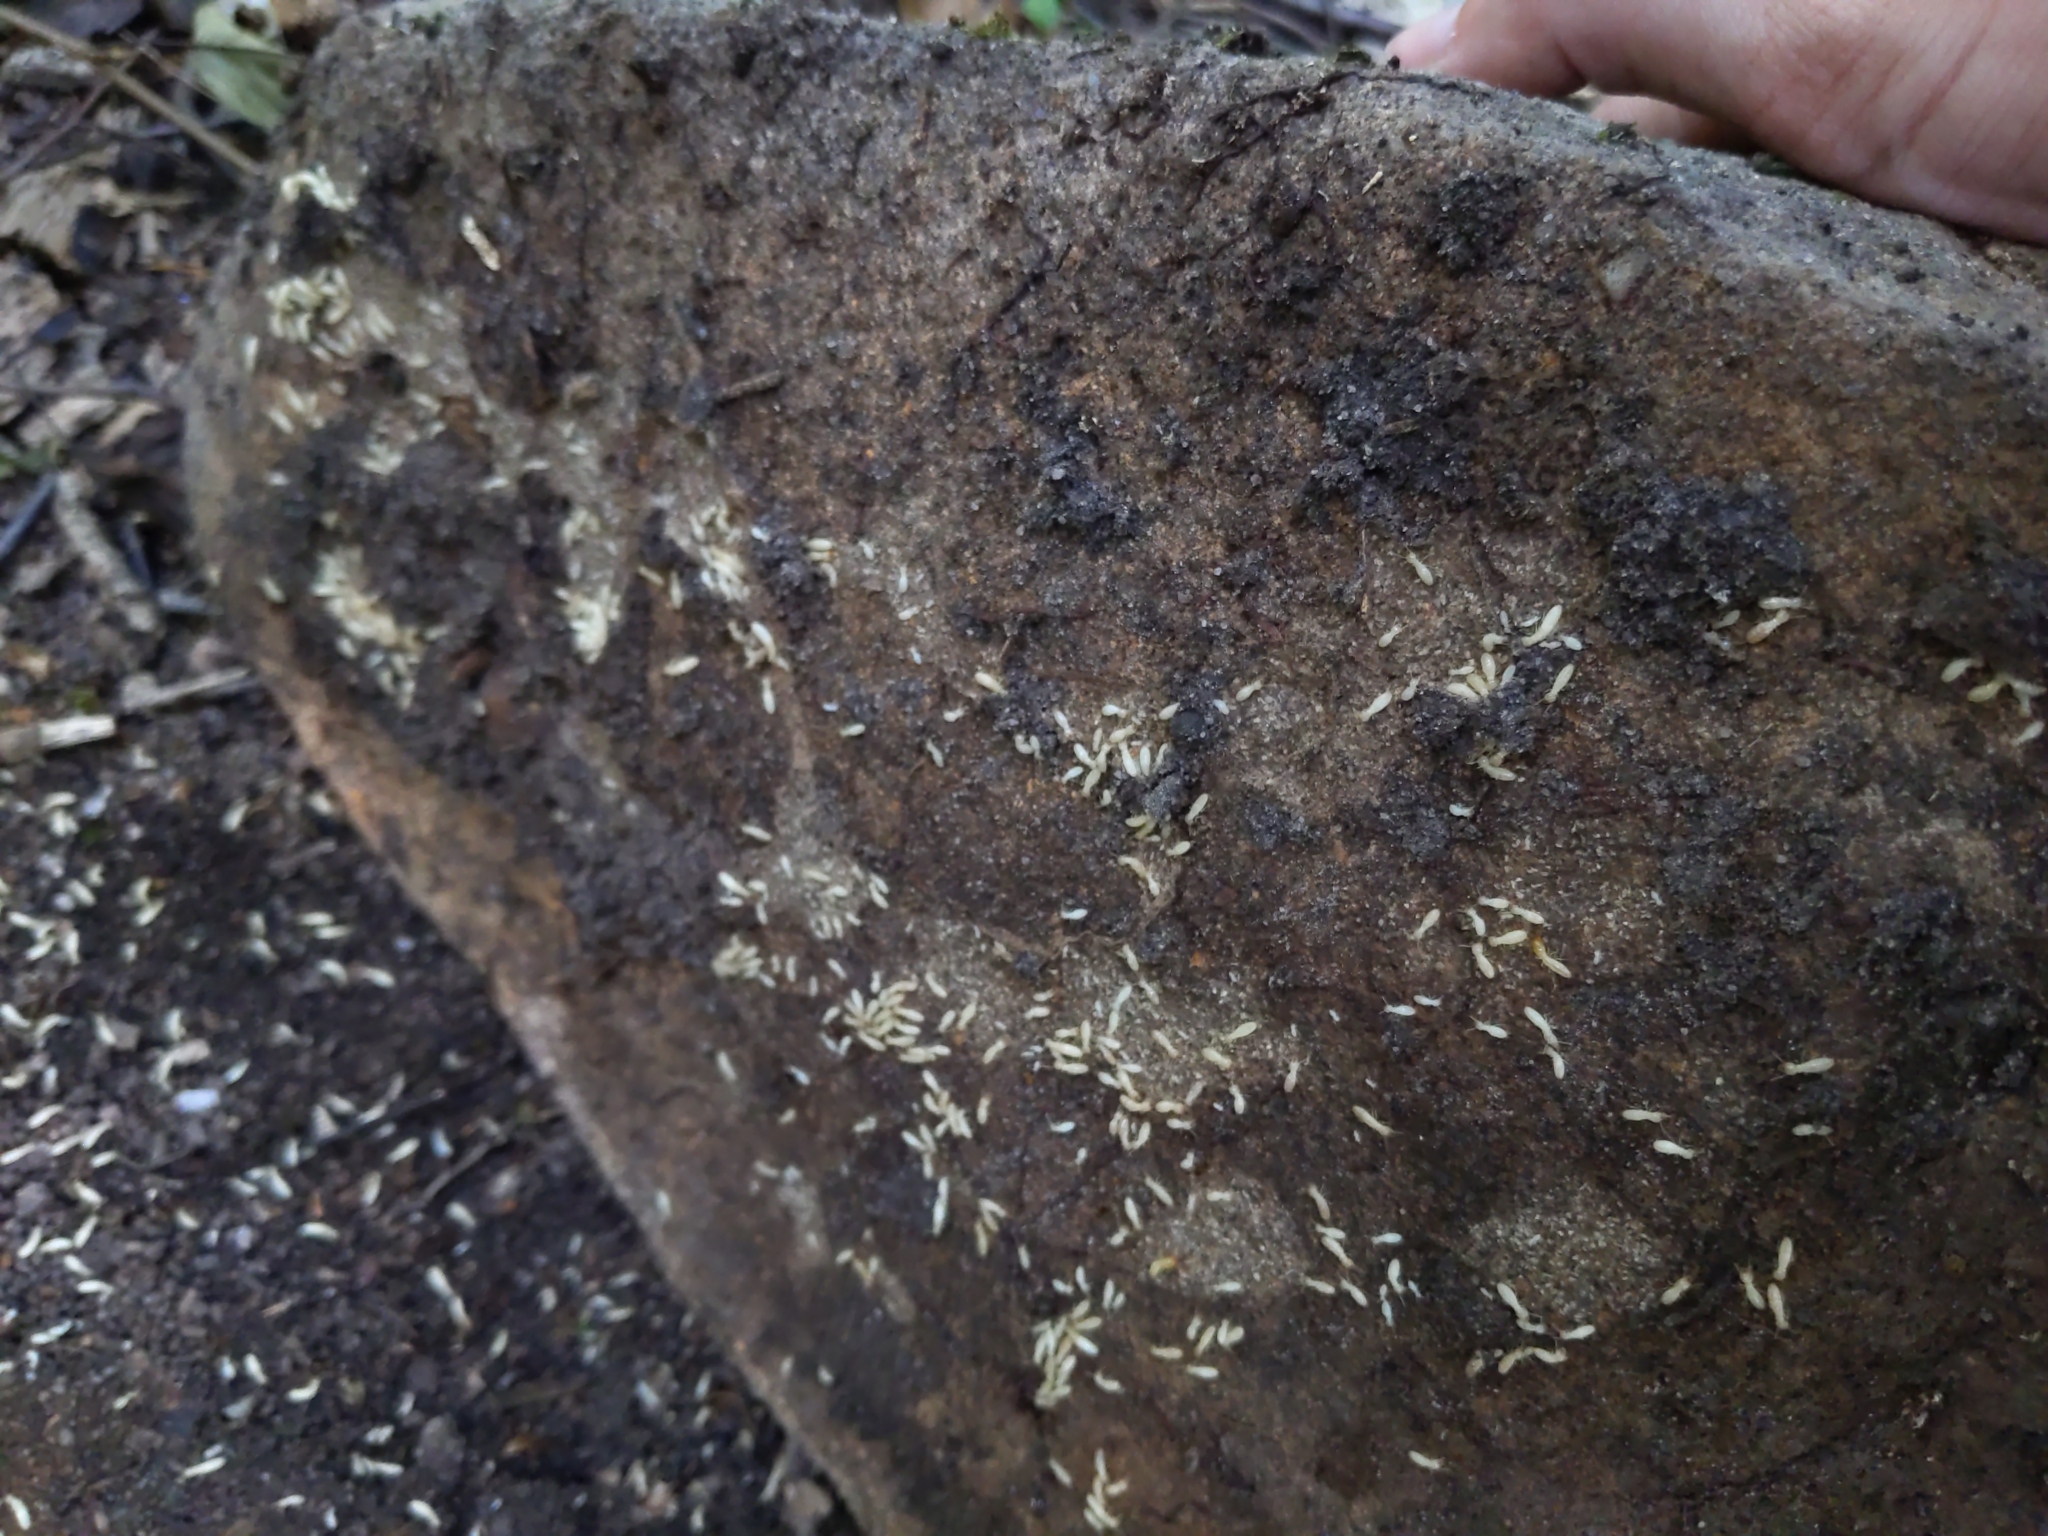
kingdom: Animalia
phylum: Arthropoda
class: Insecta
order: Blattodea
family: Rhinotermitidae
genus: Reticulitermes
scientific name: Reticulitermes flavipes
